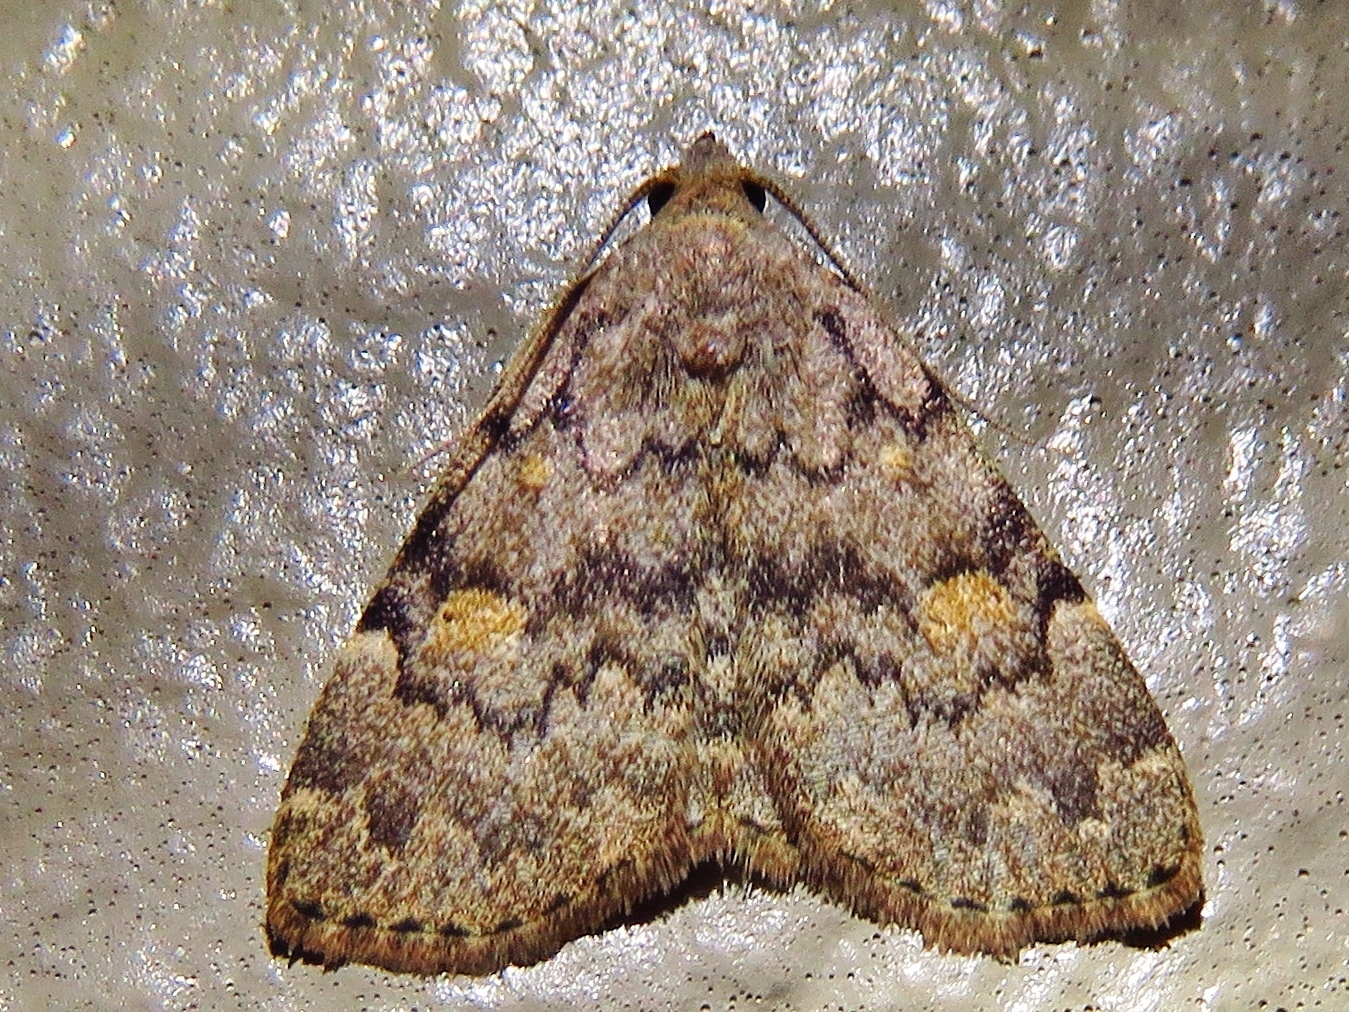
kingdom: Animalia
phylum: Arthropoda
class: Insecta
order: Lepidoptera
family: Erebidae
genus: Idia
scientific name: Idia aemula
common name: Common idia moth
